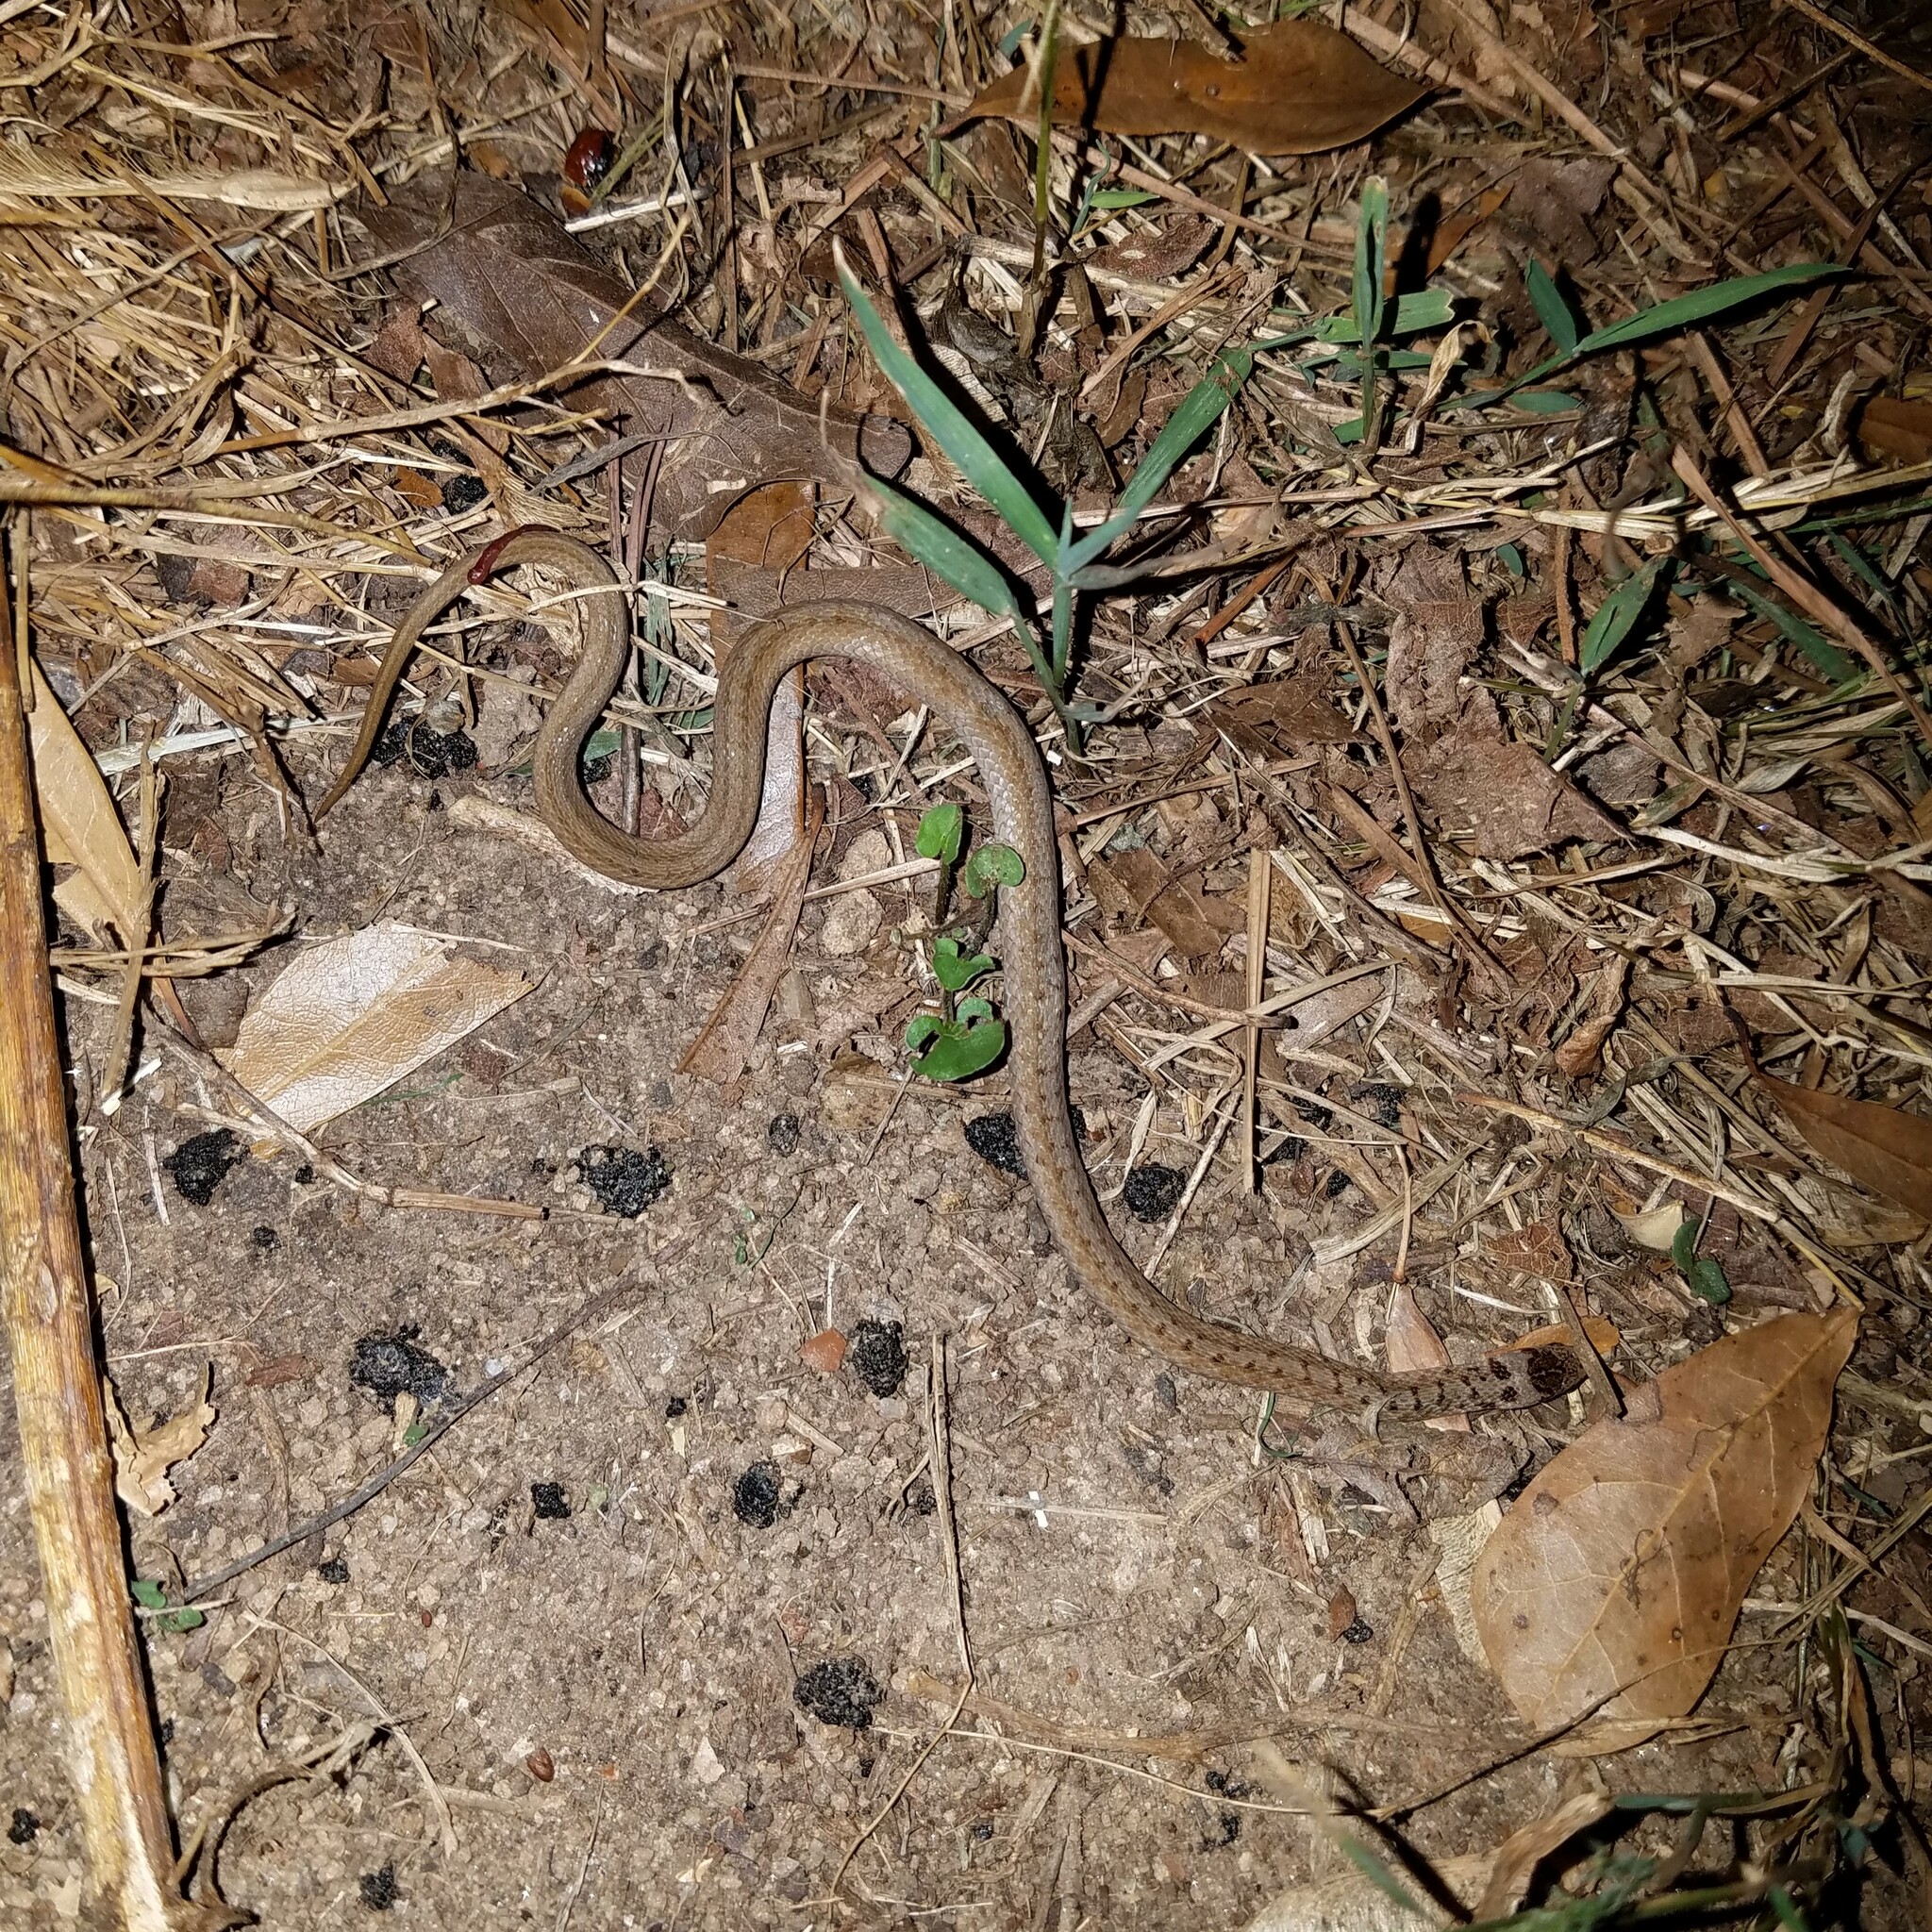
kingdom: Animalia
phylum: Chordata
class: Squamata
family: Colubridae
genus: Storeria
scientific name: Storeria dekayi
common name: (dekay’s) brown snake
